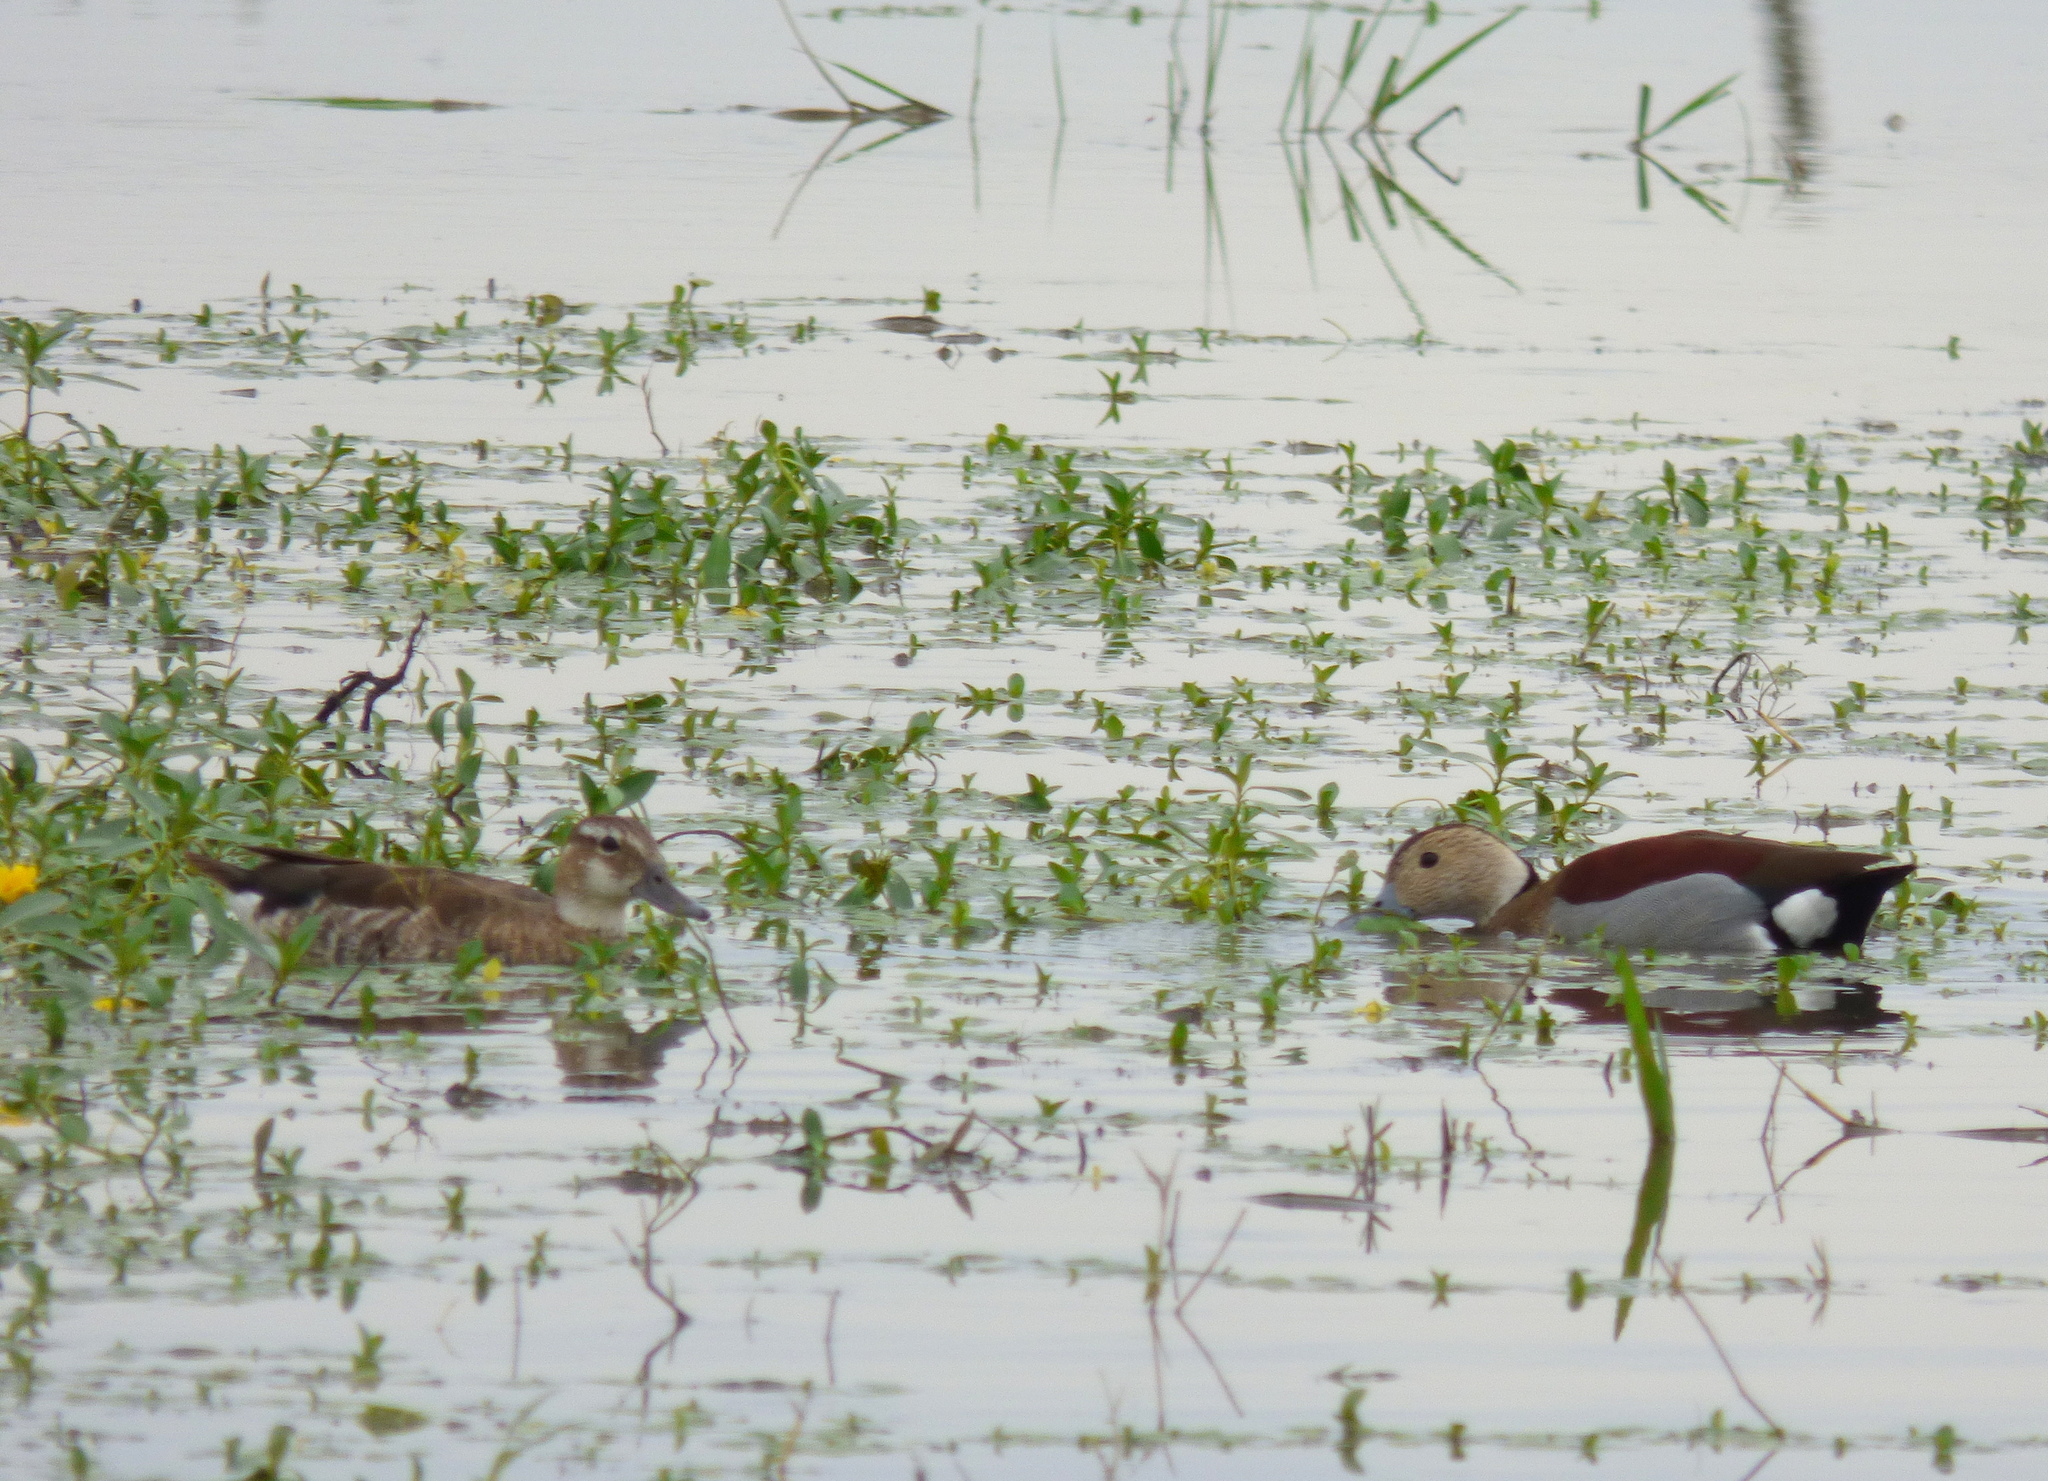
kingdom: Animalia
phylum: Chordata
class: Aves
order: Anseriformes
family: Anatidae
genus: Callonetta
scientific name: Callonetta leucophrys
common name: Ringed teal
